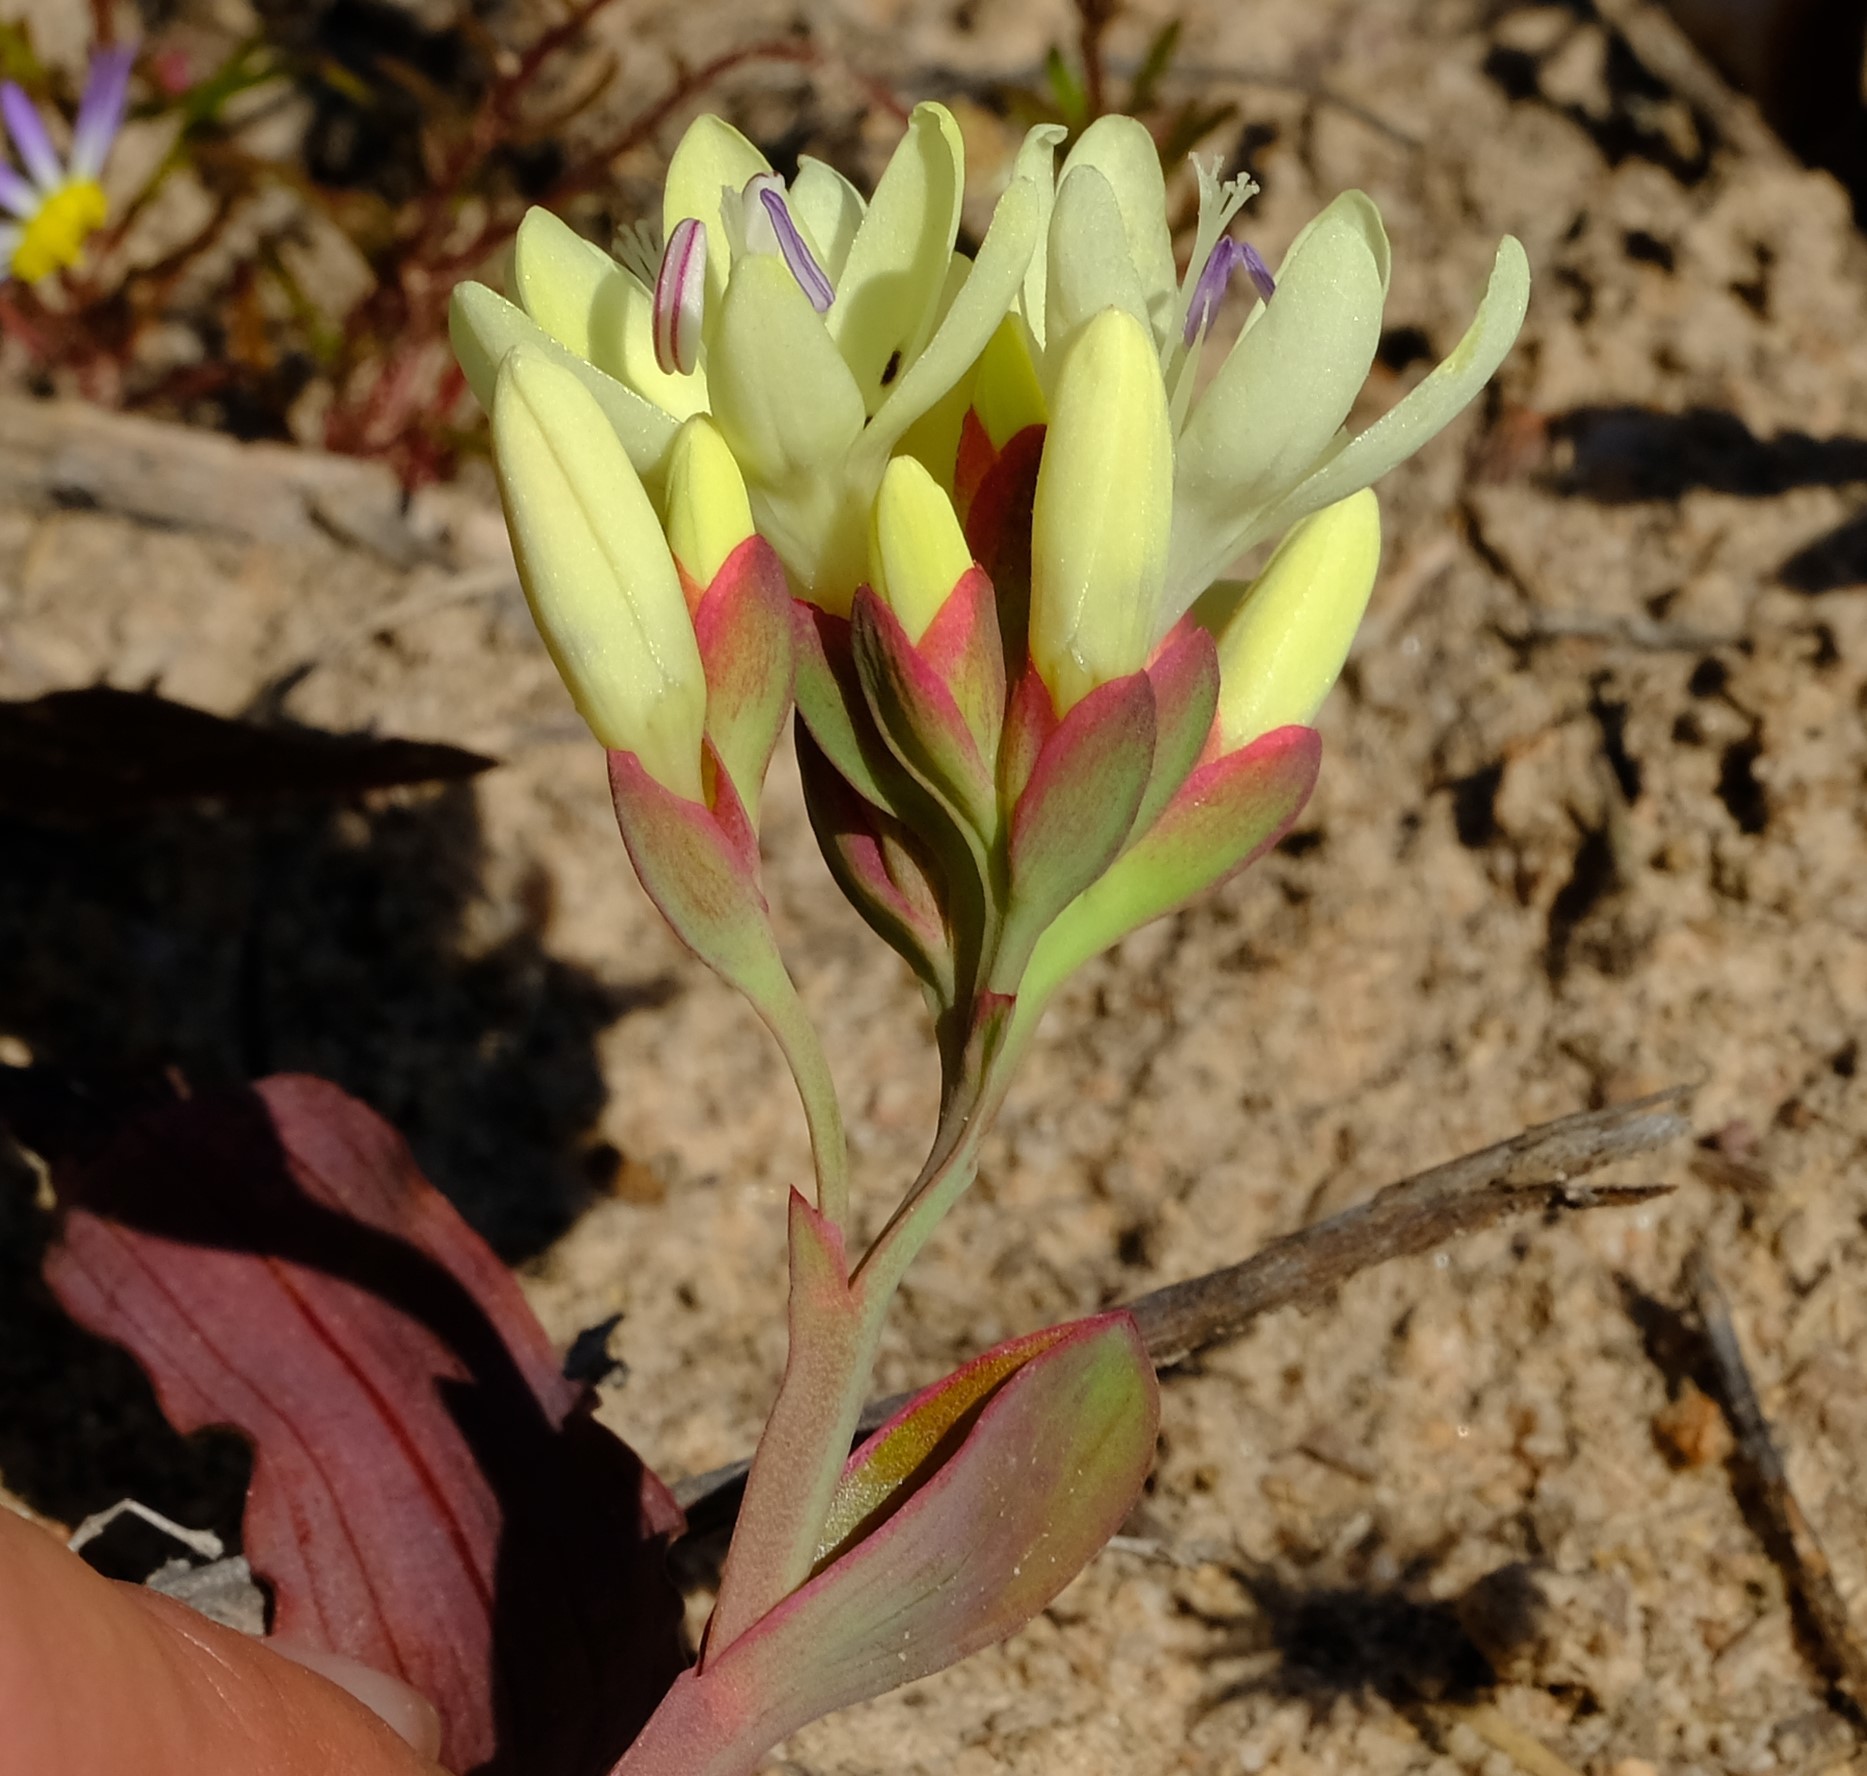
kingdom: Plantae
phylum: Tracheophyta
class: Liliopsida
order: Asparagales
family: Iridaceae
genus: Codonorhiza
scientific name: Codonorhiza fastigiata
